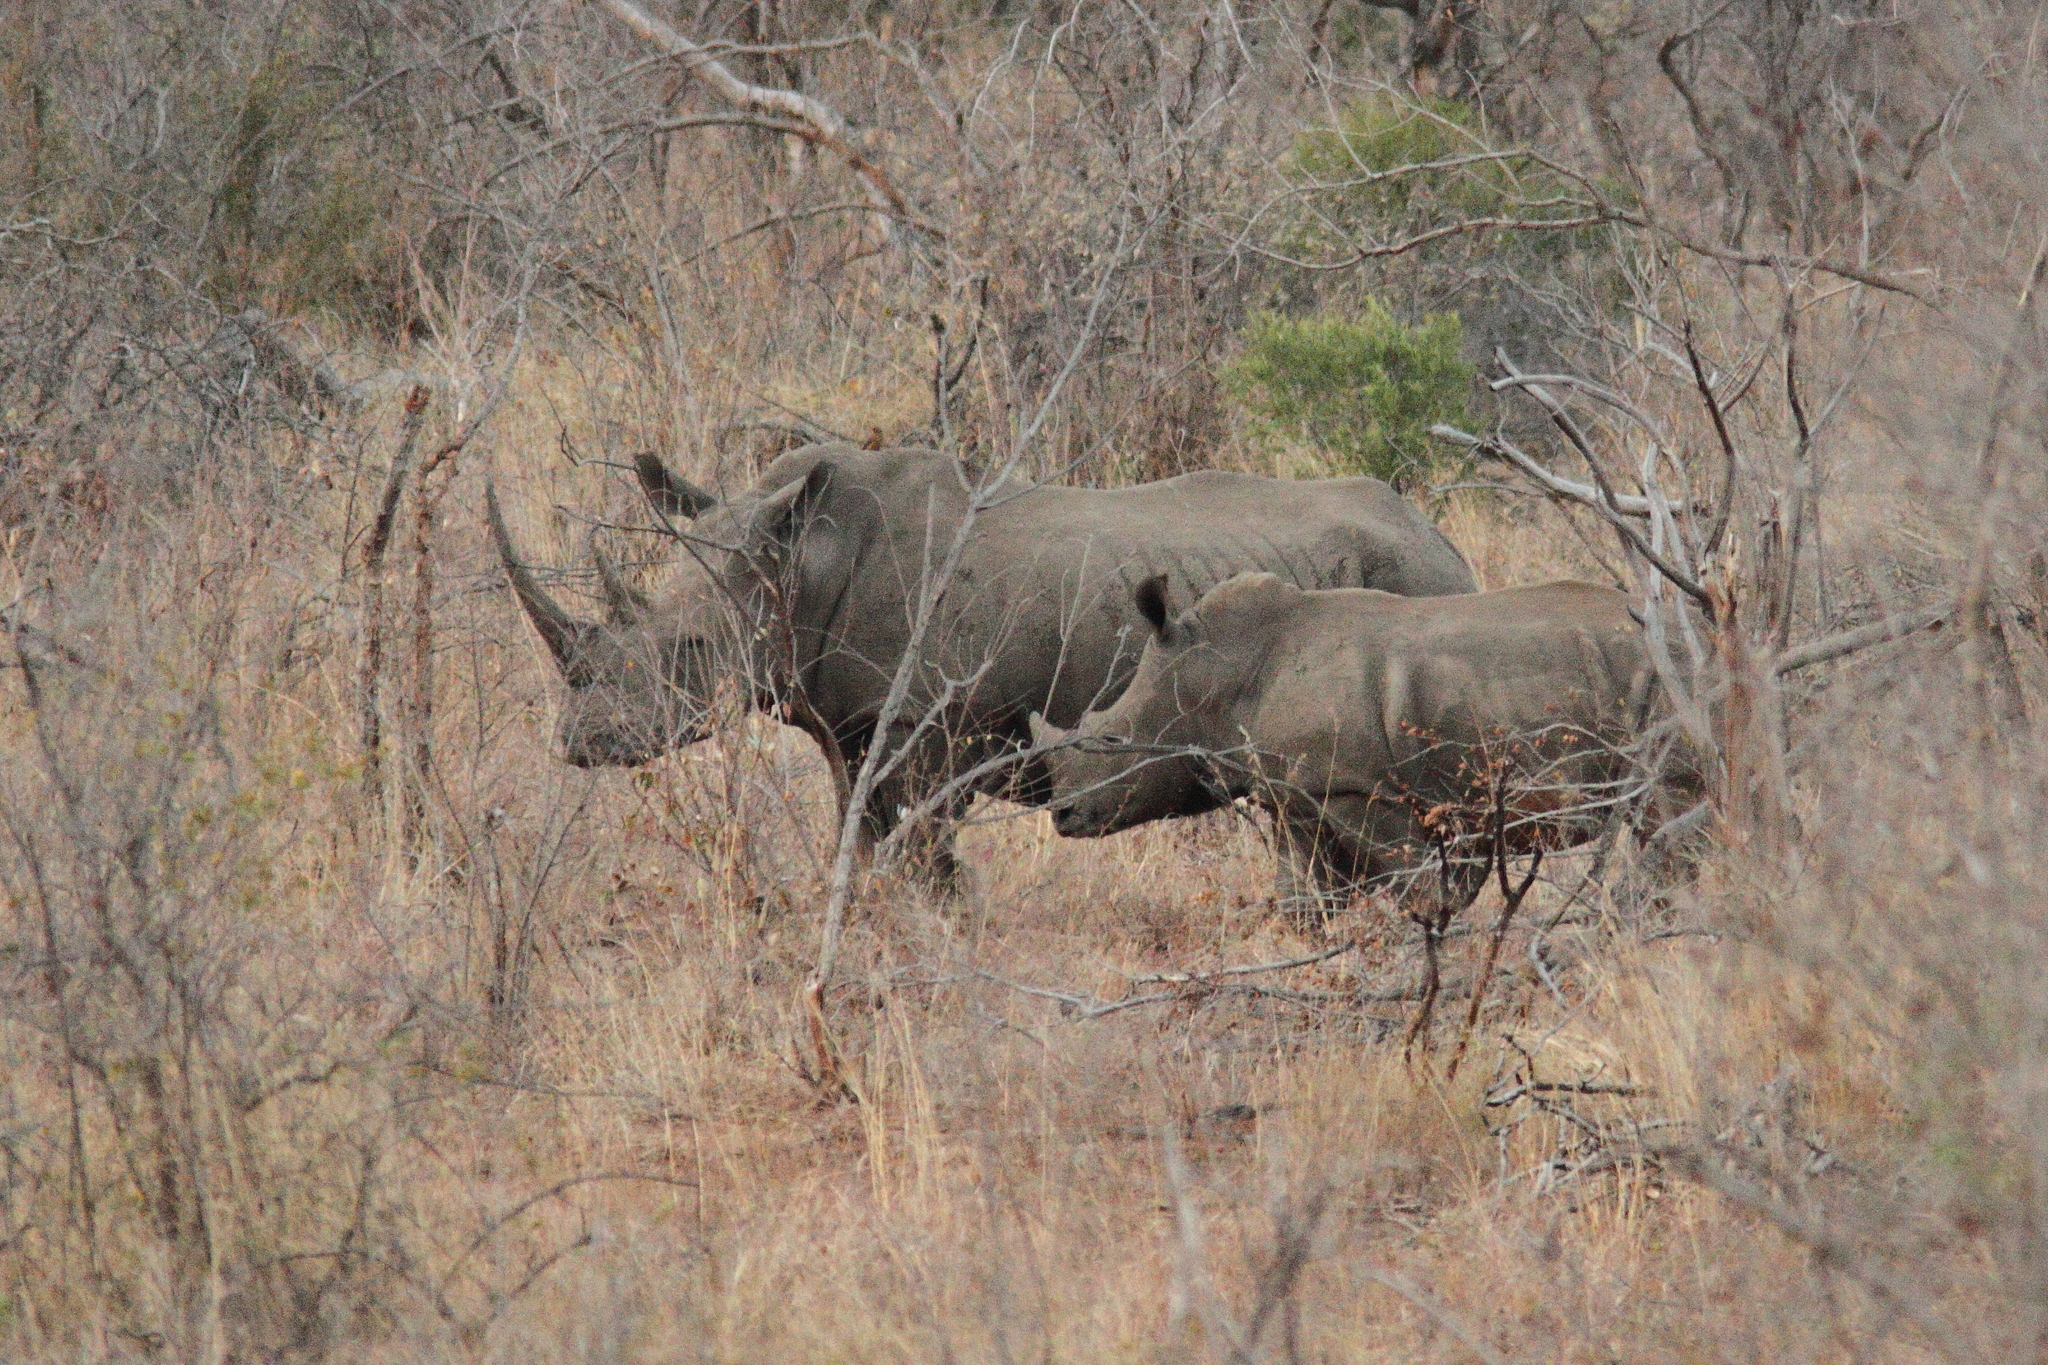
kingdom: Animalia
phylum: Chordata
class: Mammalia
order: Perissodactyla
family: Rhinocerotidae
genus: Ceratotherium
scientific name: Ceratotherium simum
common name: White rhinoceros
